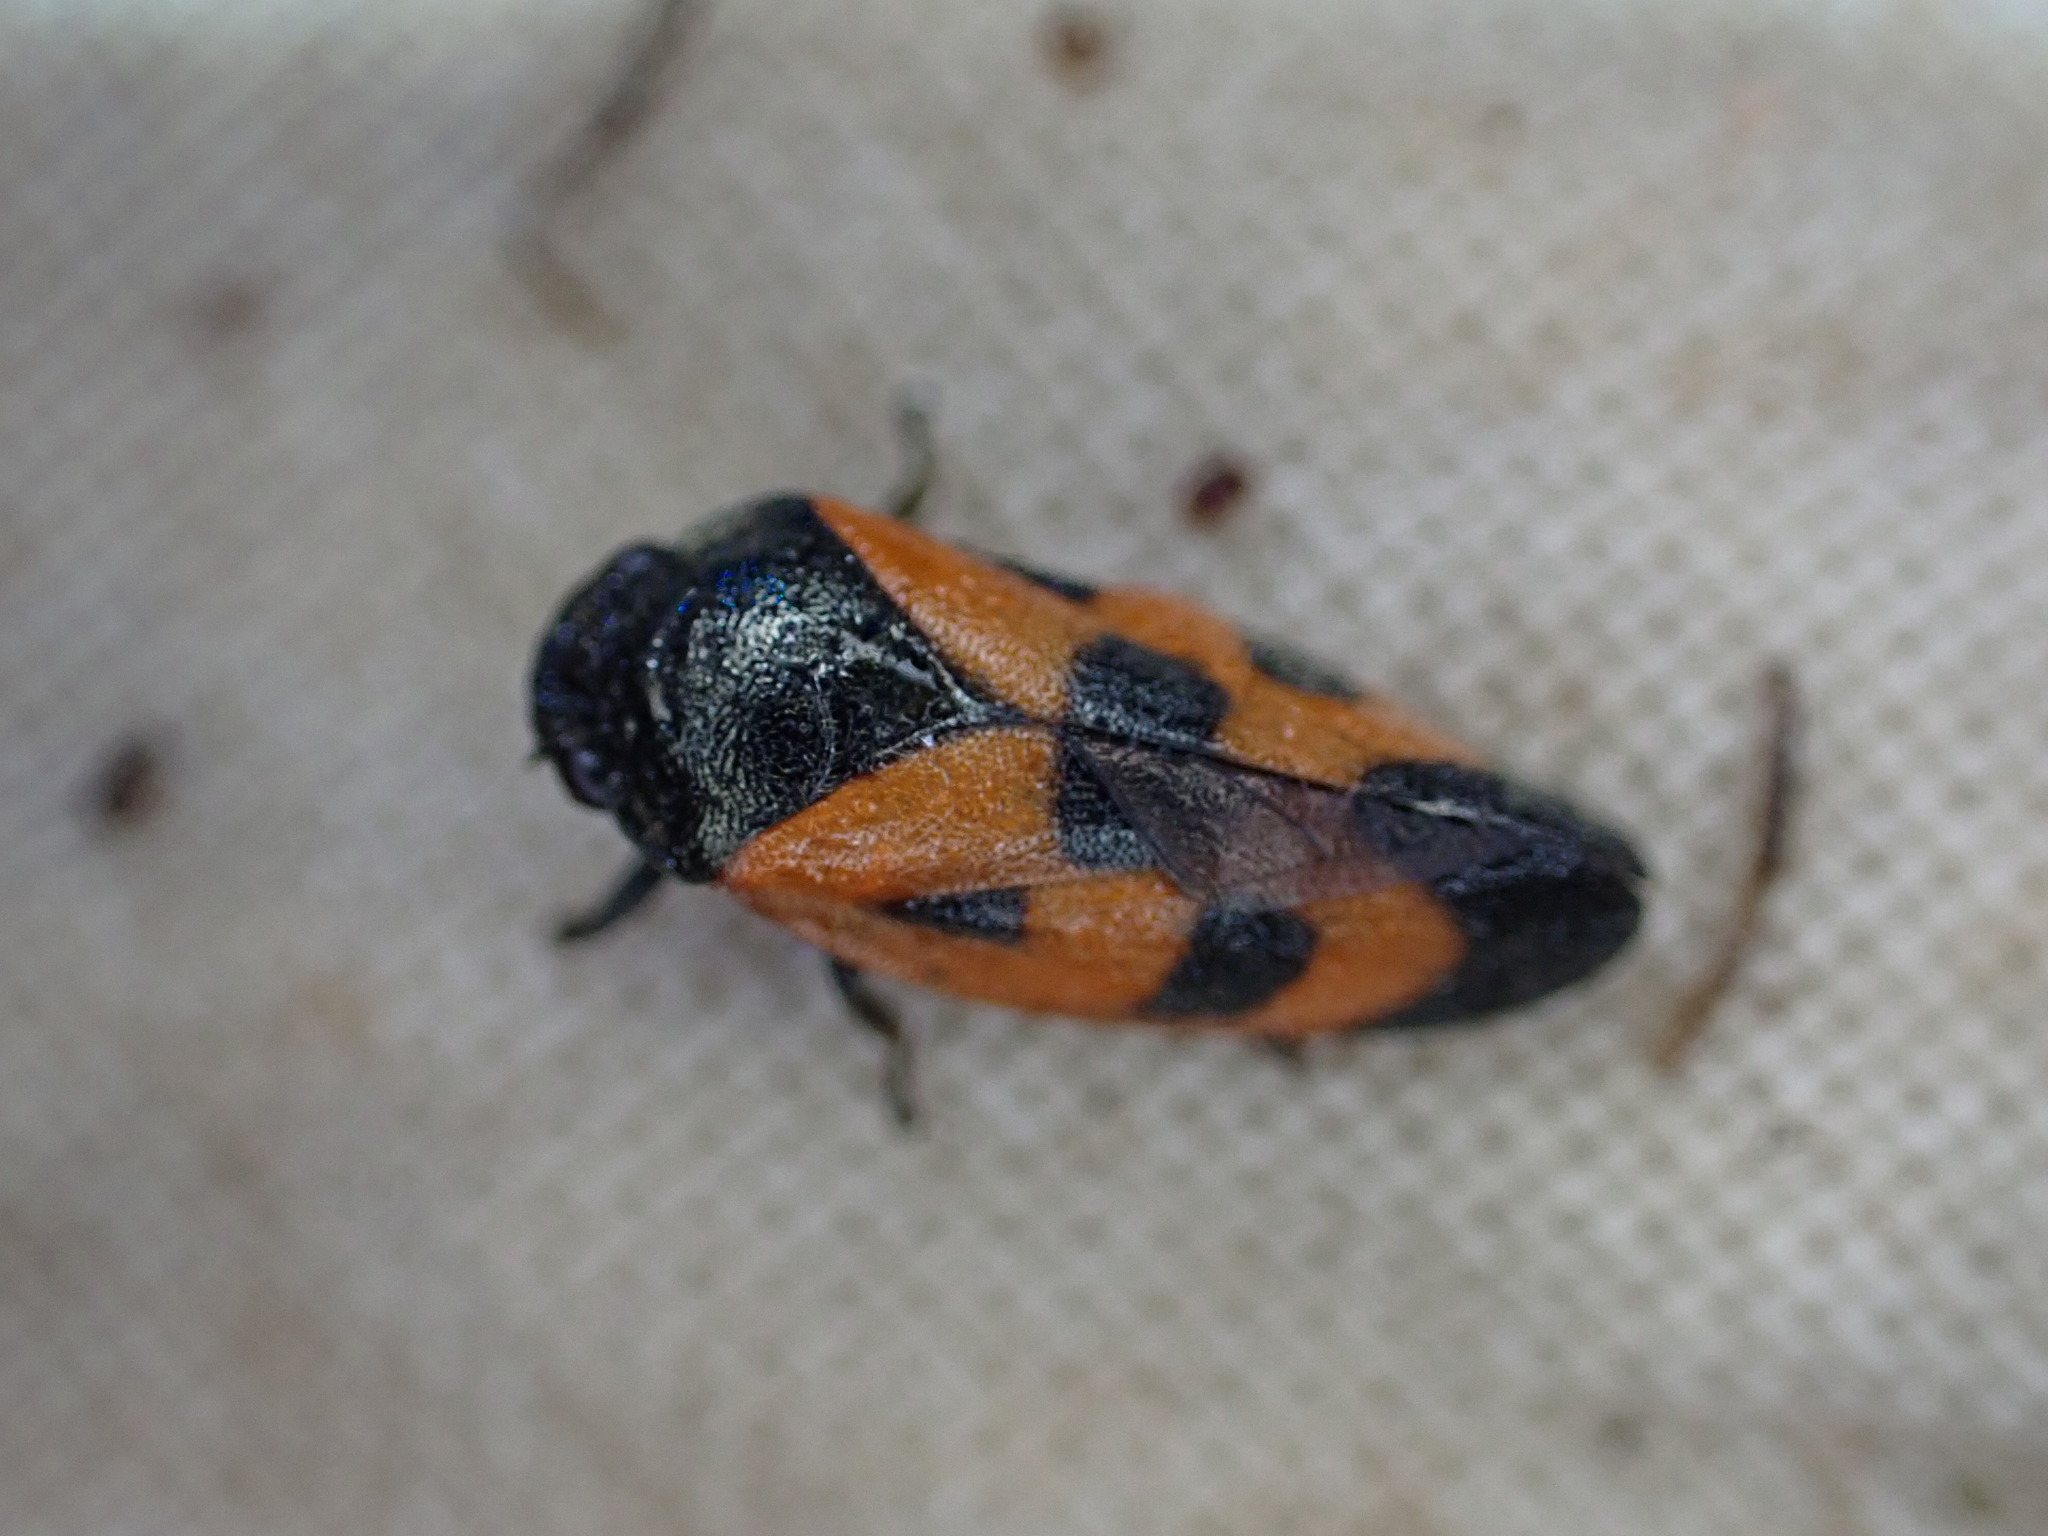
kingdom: Animalia
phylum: Arthropoda
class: Insecta
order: Hemiptera
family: Cercopidae
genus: Haematoloma
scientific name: Haematoloma dorsata
